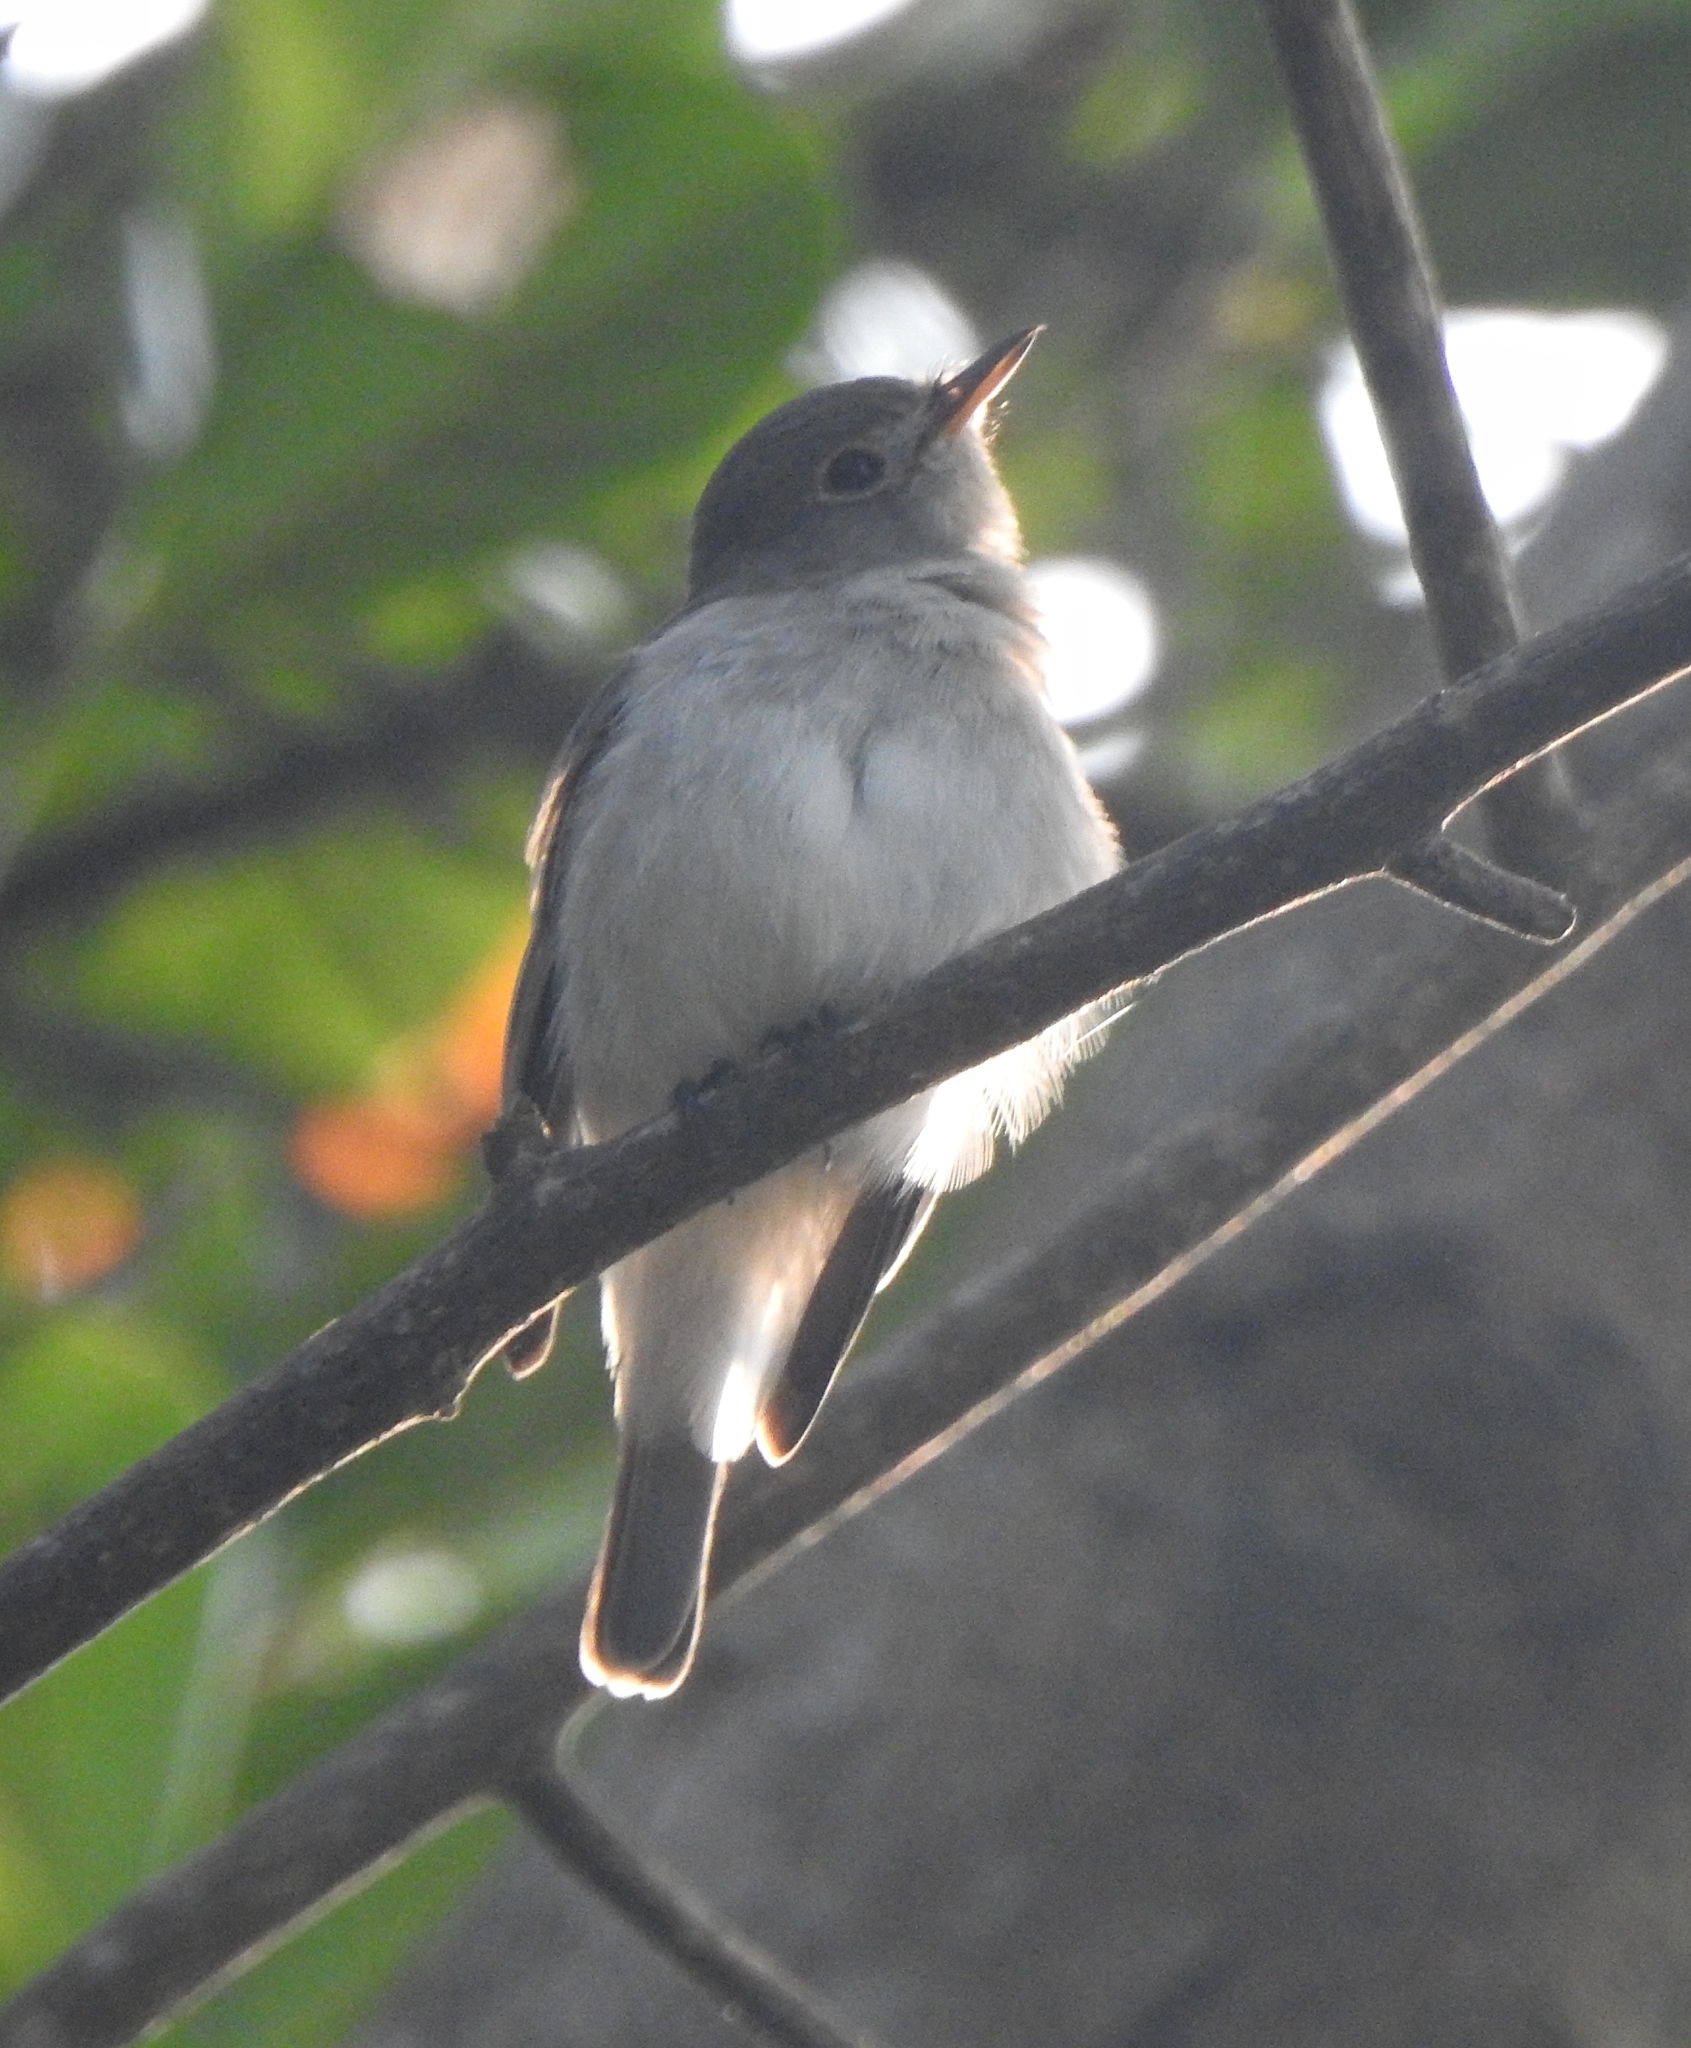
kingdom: Animalia
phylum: Chordata
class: Aves
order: Passeriformes
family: Muscicapidae
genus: Muscicapa
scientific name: Muscicapa latirostris
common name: Asian brown flycatcher
